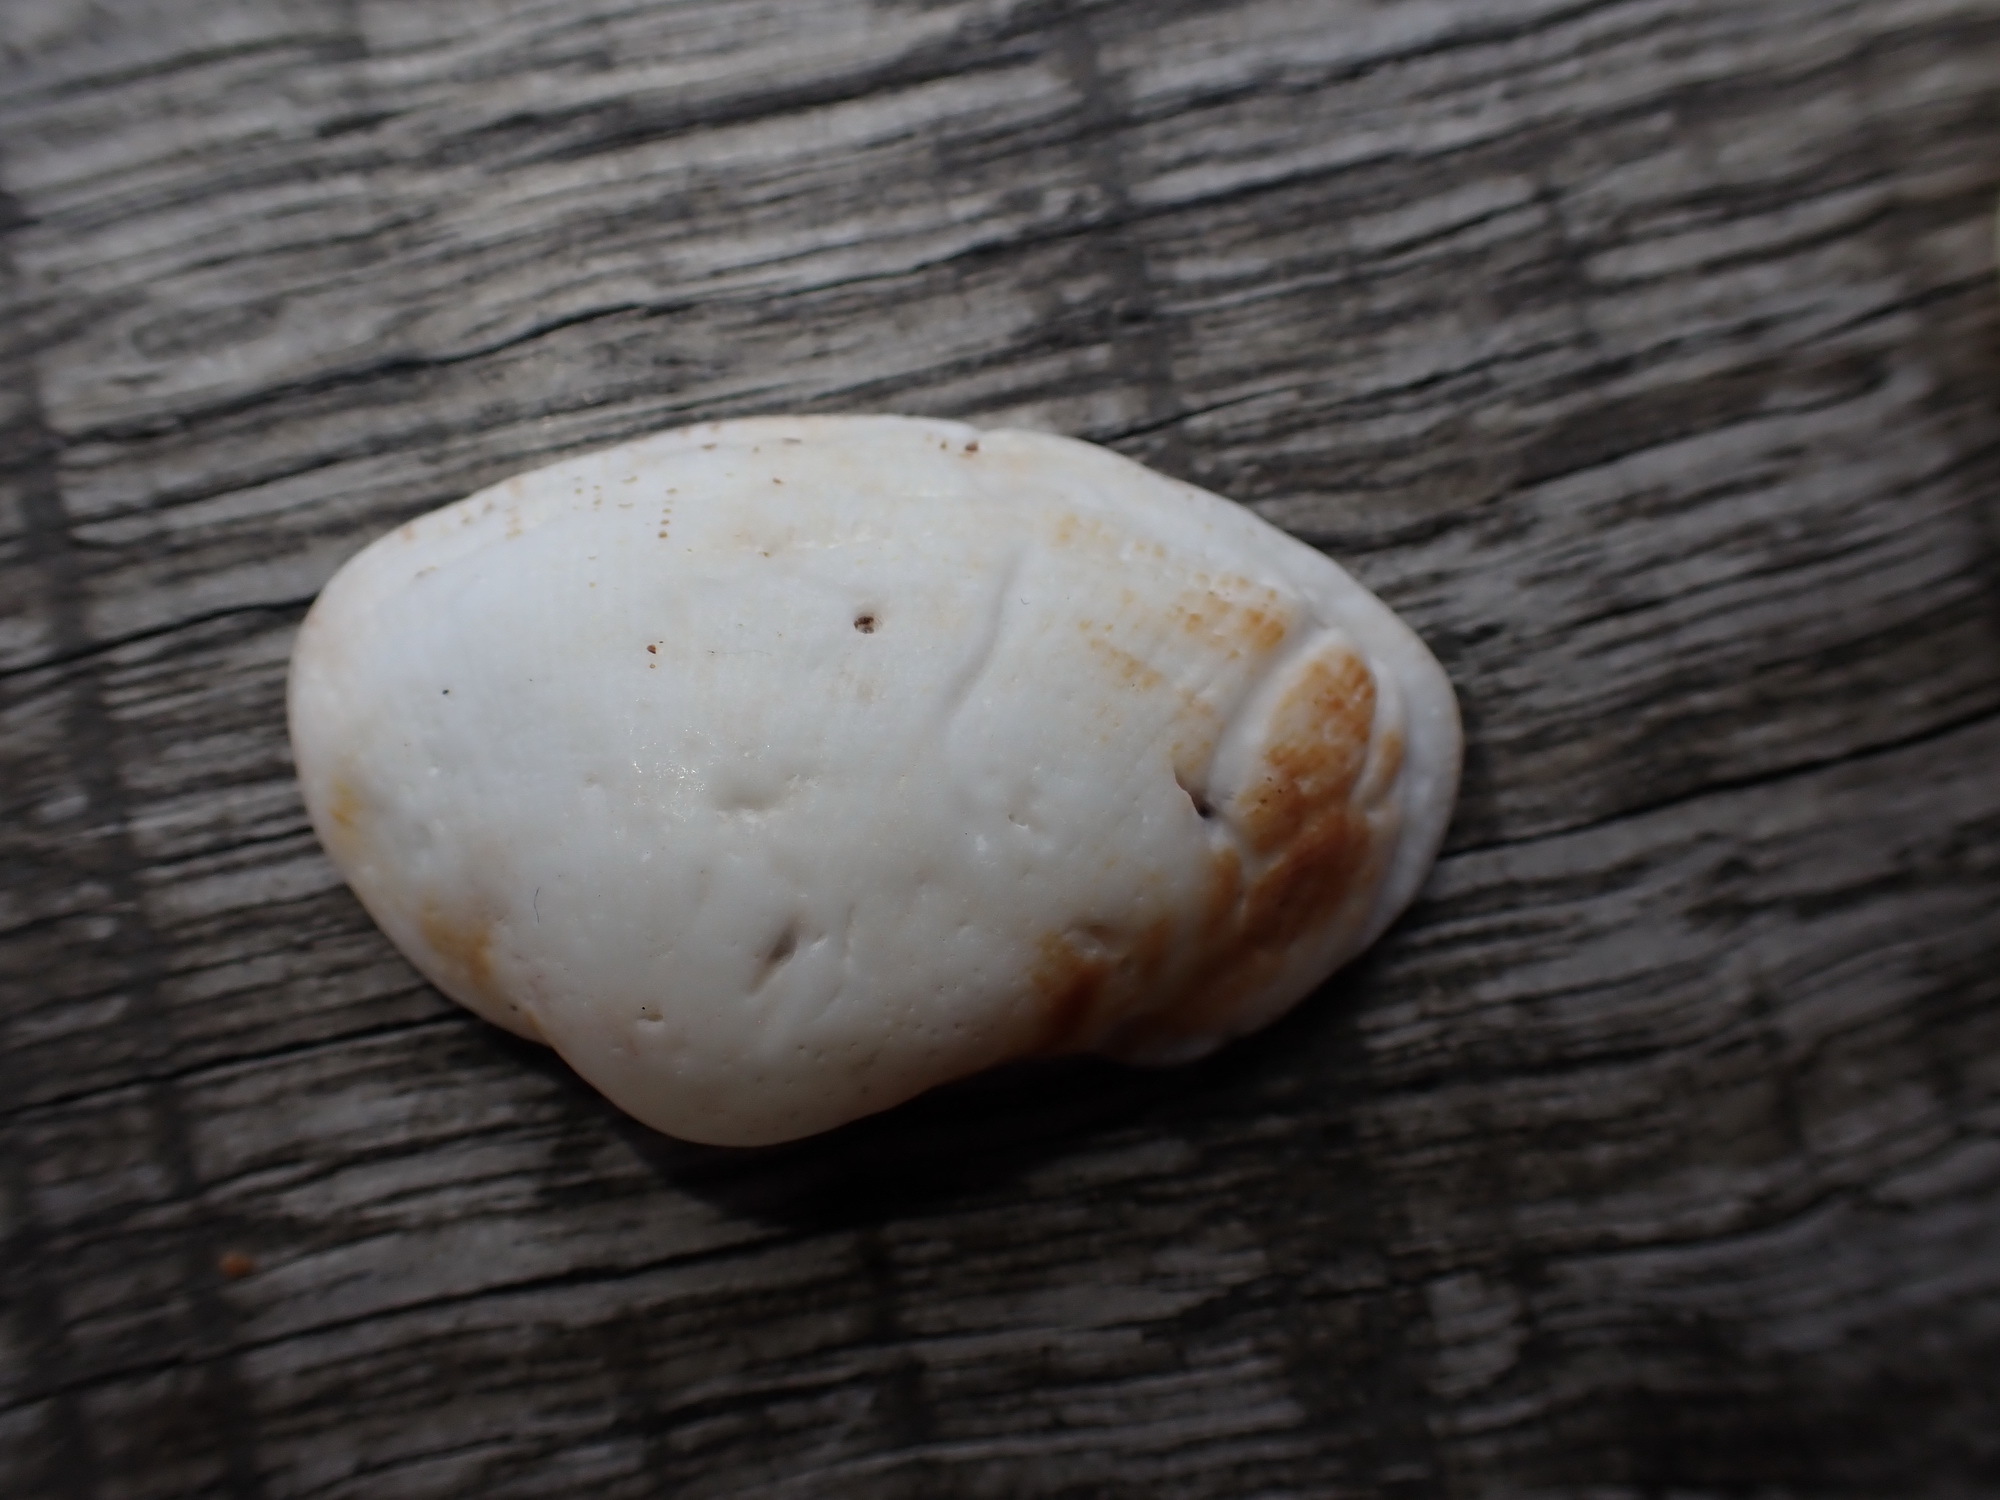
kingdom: Animalia
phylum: Mollusca
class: Bivalvia
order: Arcida
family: Arcidae
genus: Barbatia
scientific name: Barbatia pistachia
